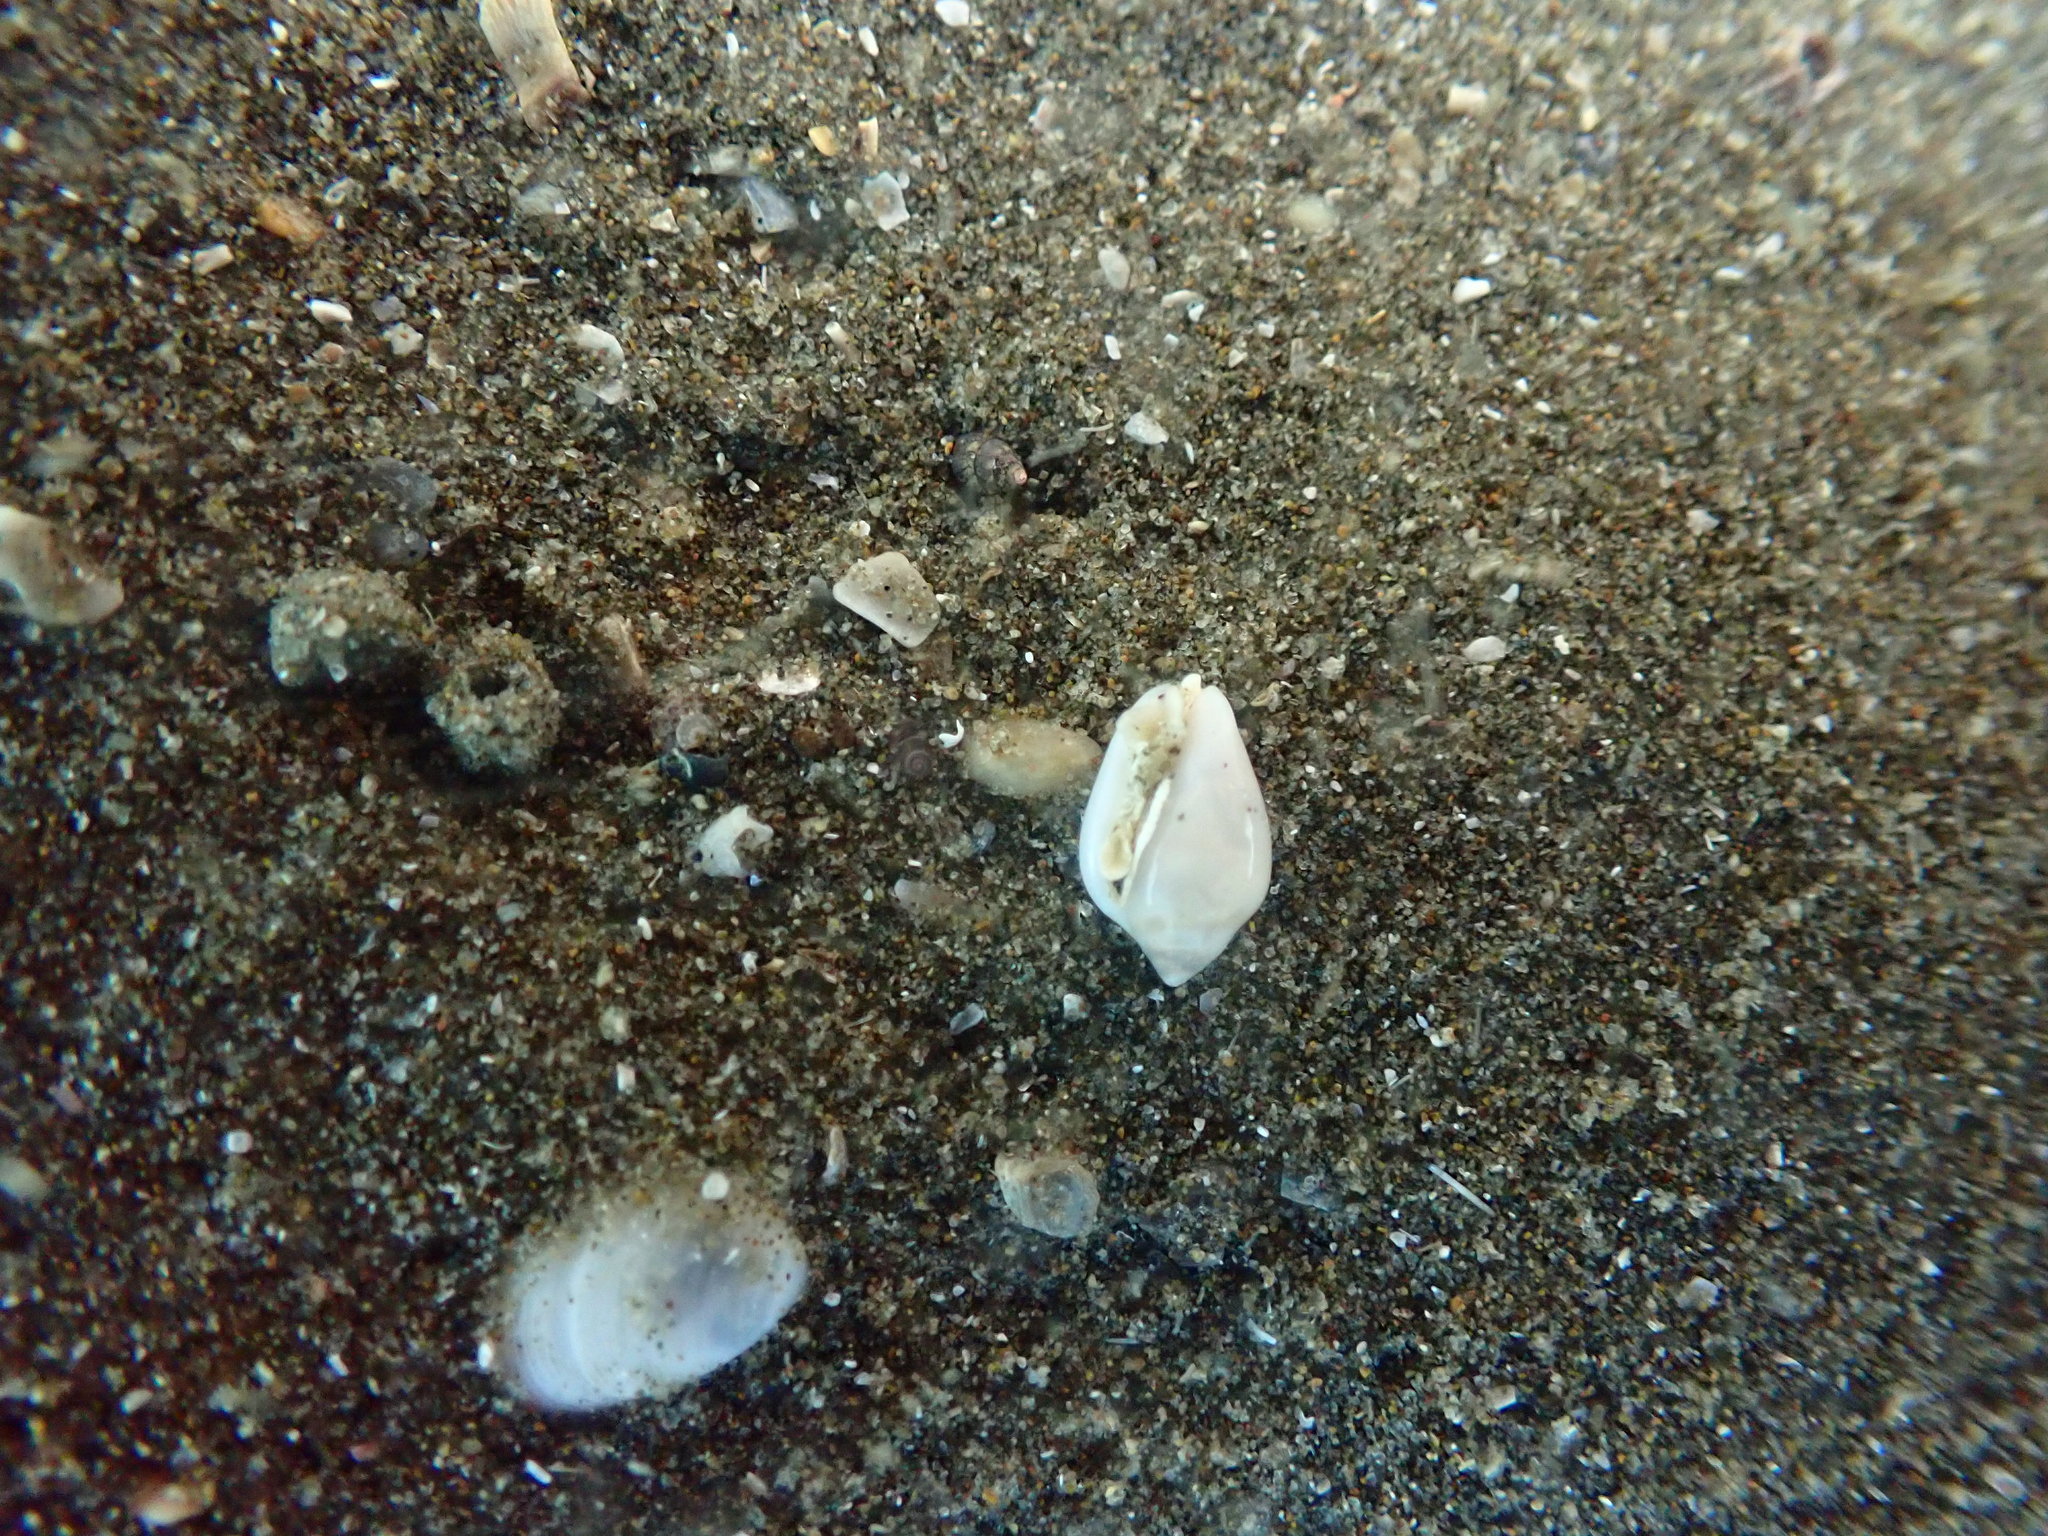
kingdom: Animalia
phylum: Mollusca
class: Gastropoda
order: Neogastropoda
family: Marginellidae
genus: Mesoginella
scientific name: Mesoginella
